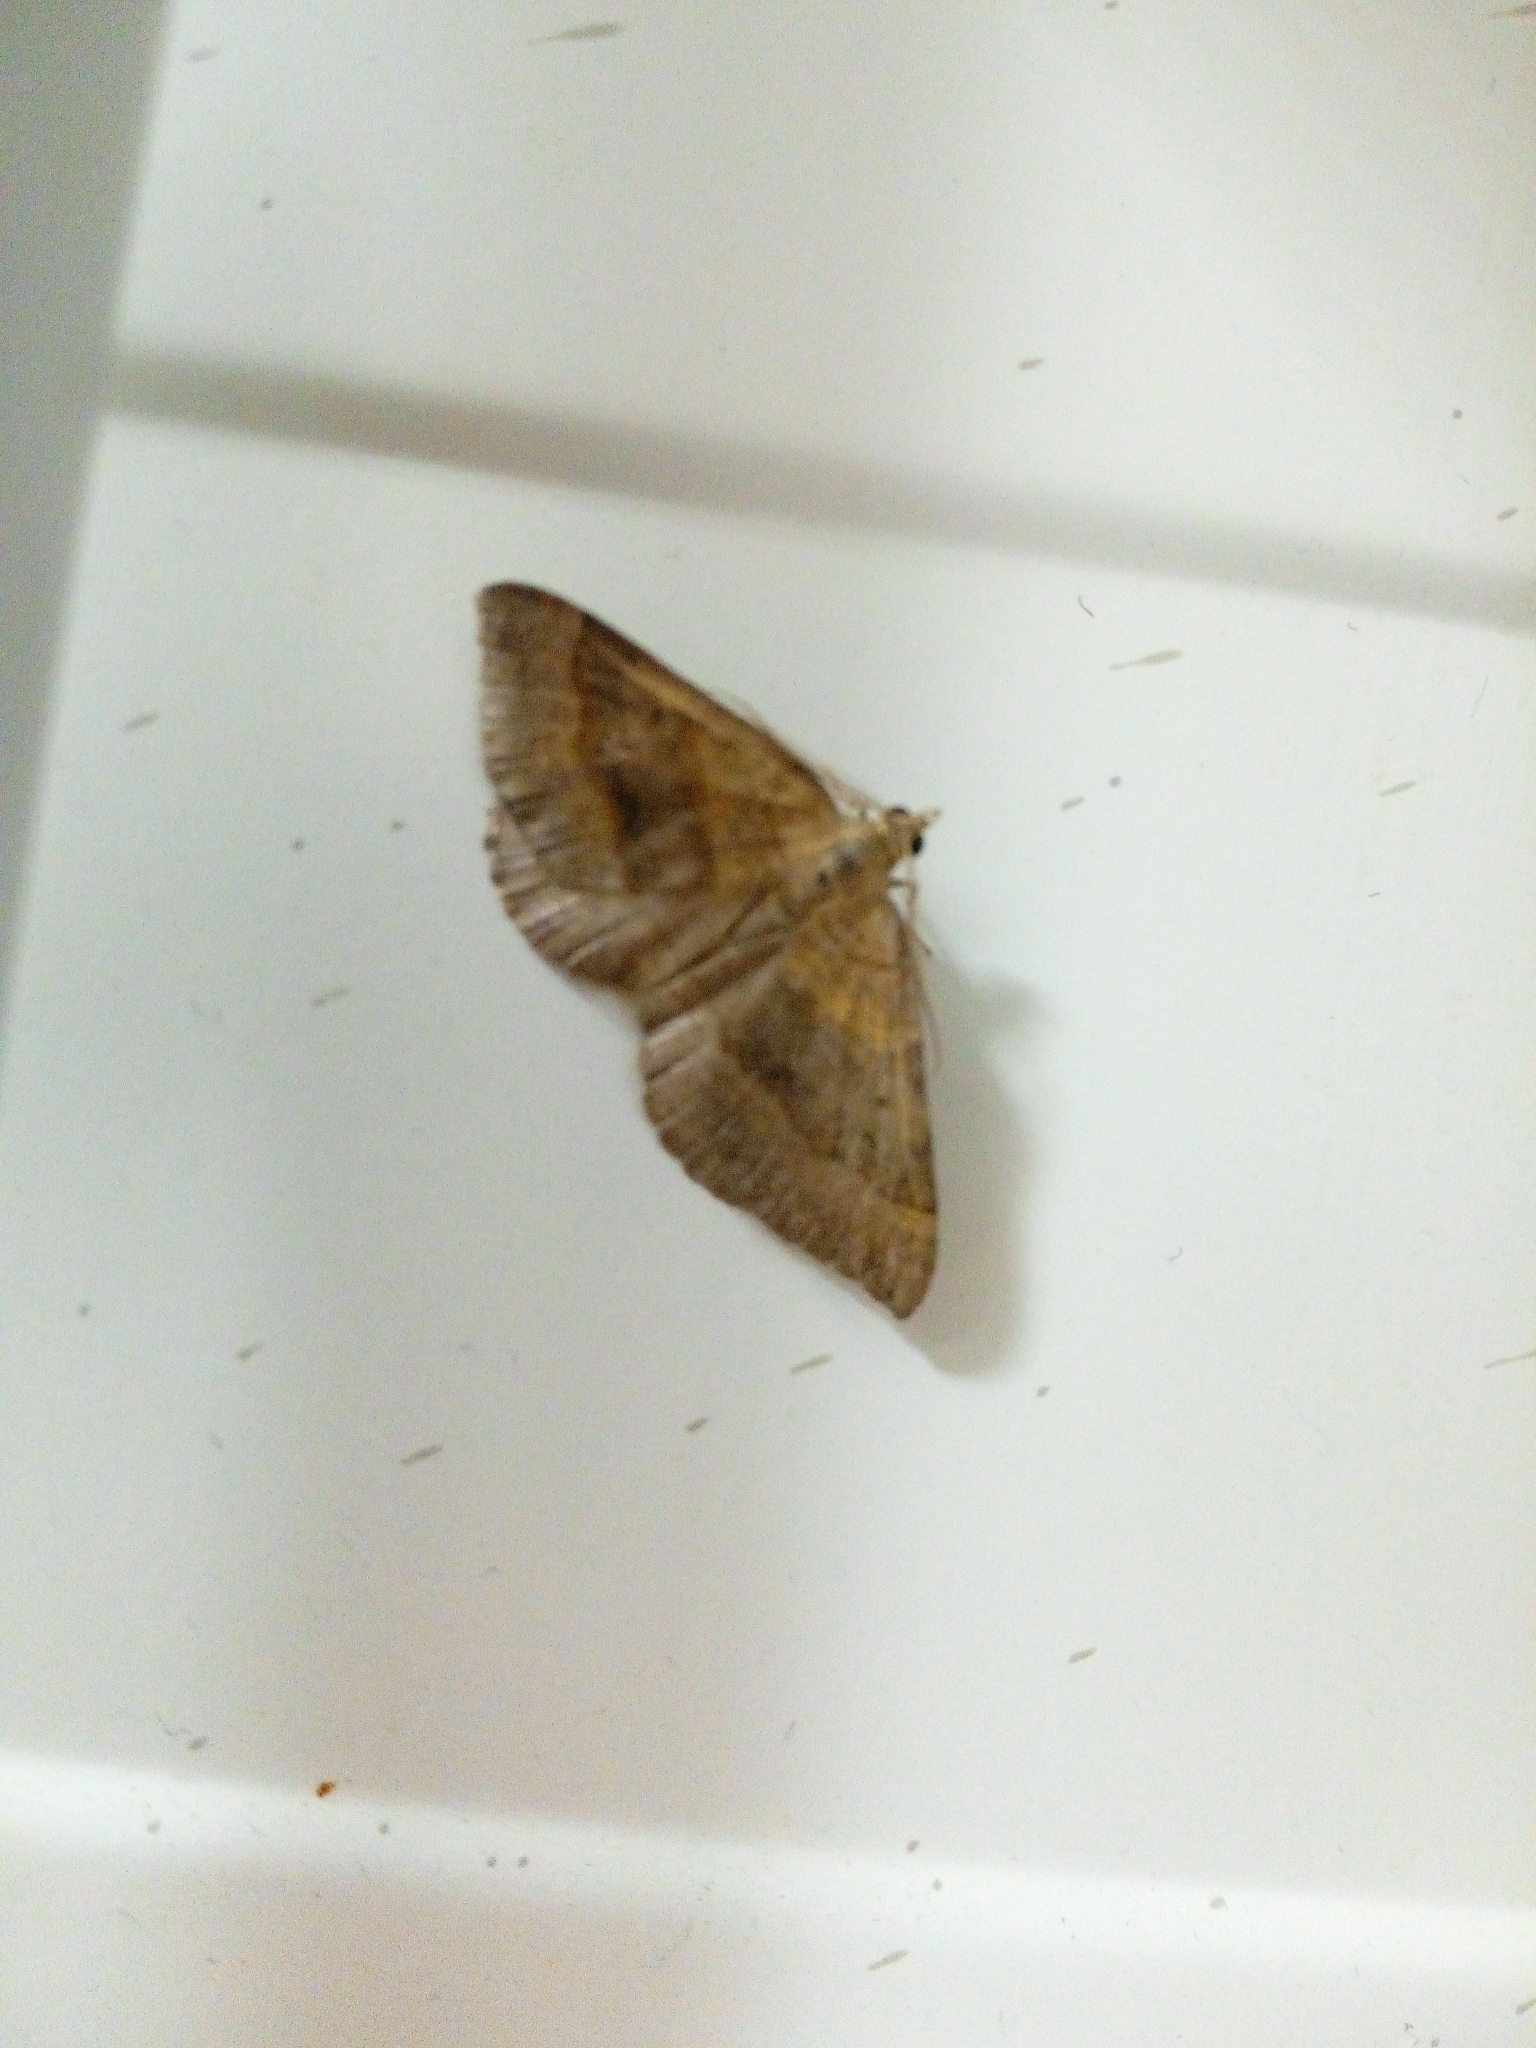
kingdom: Animalia
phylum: Arthropoda
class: Insecta
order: Lepidoptera
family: Geometridae
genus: Scotopteryx
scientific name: Scotopteryx chenopodiata
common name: Shaded broad-bar
